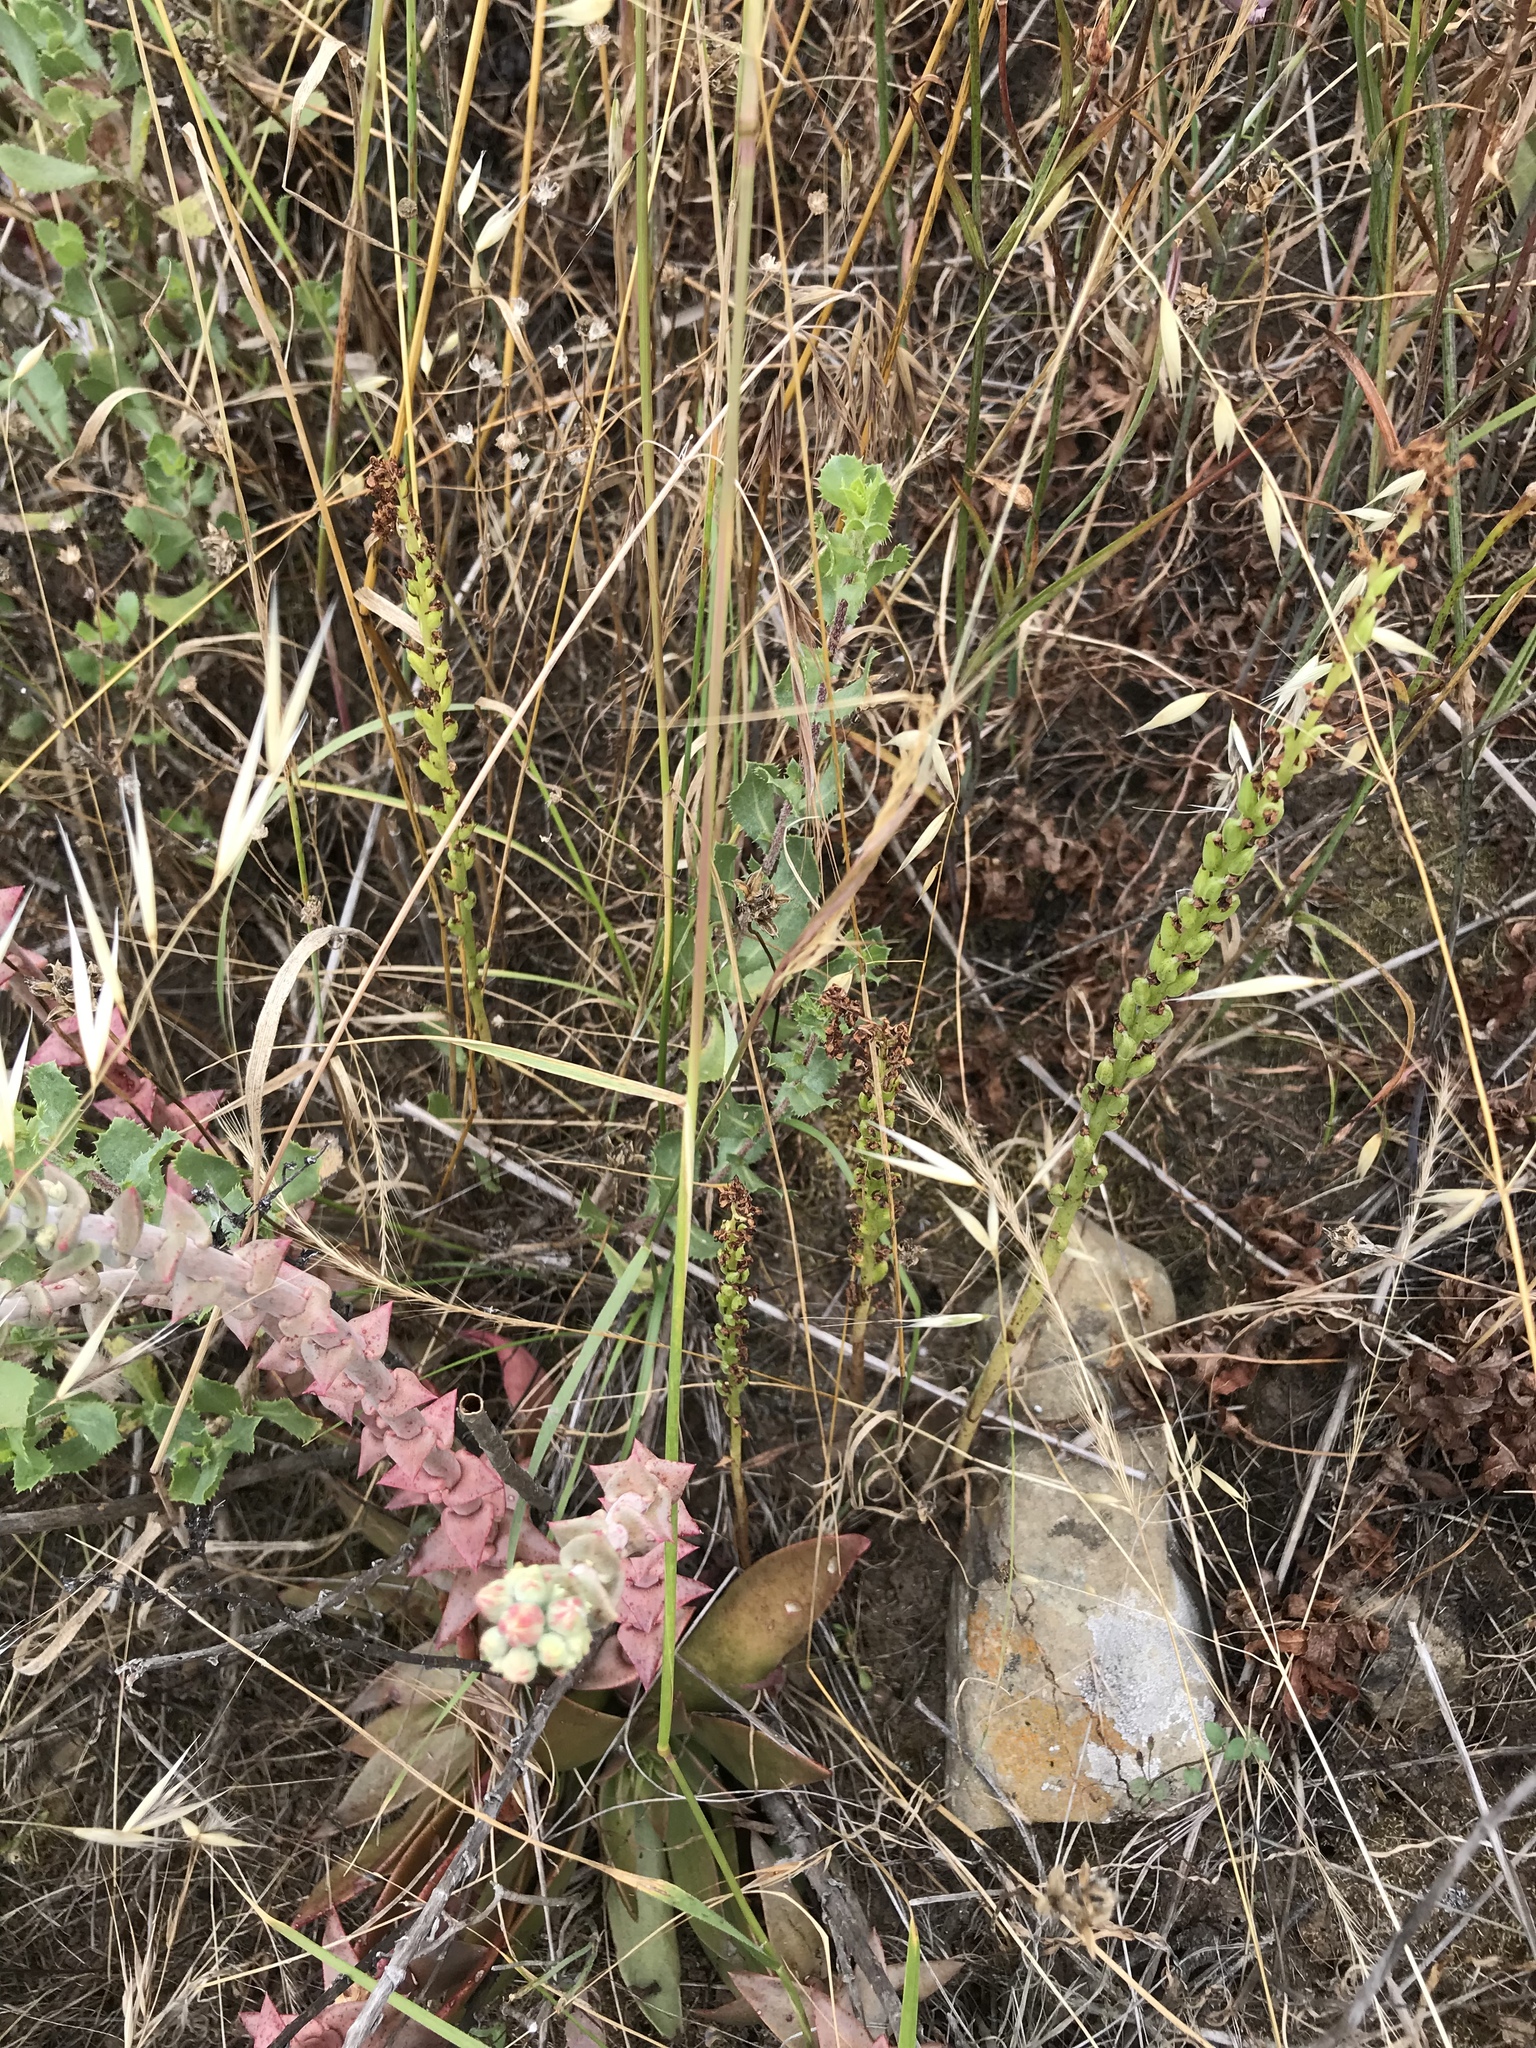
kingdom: Plantae
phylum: Tracheophyta
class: Liliopsida
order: Asparagales
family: Orchidaceae
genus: Platanthera
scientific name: Platanthera cooperi
